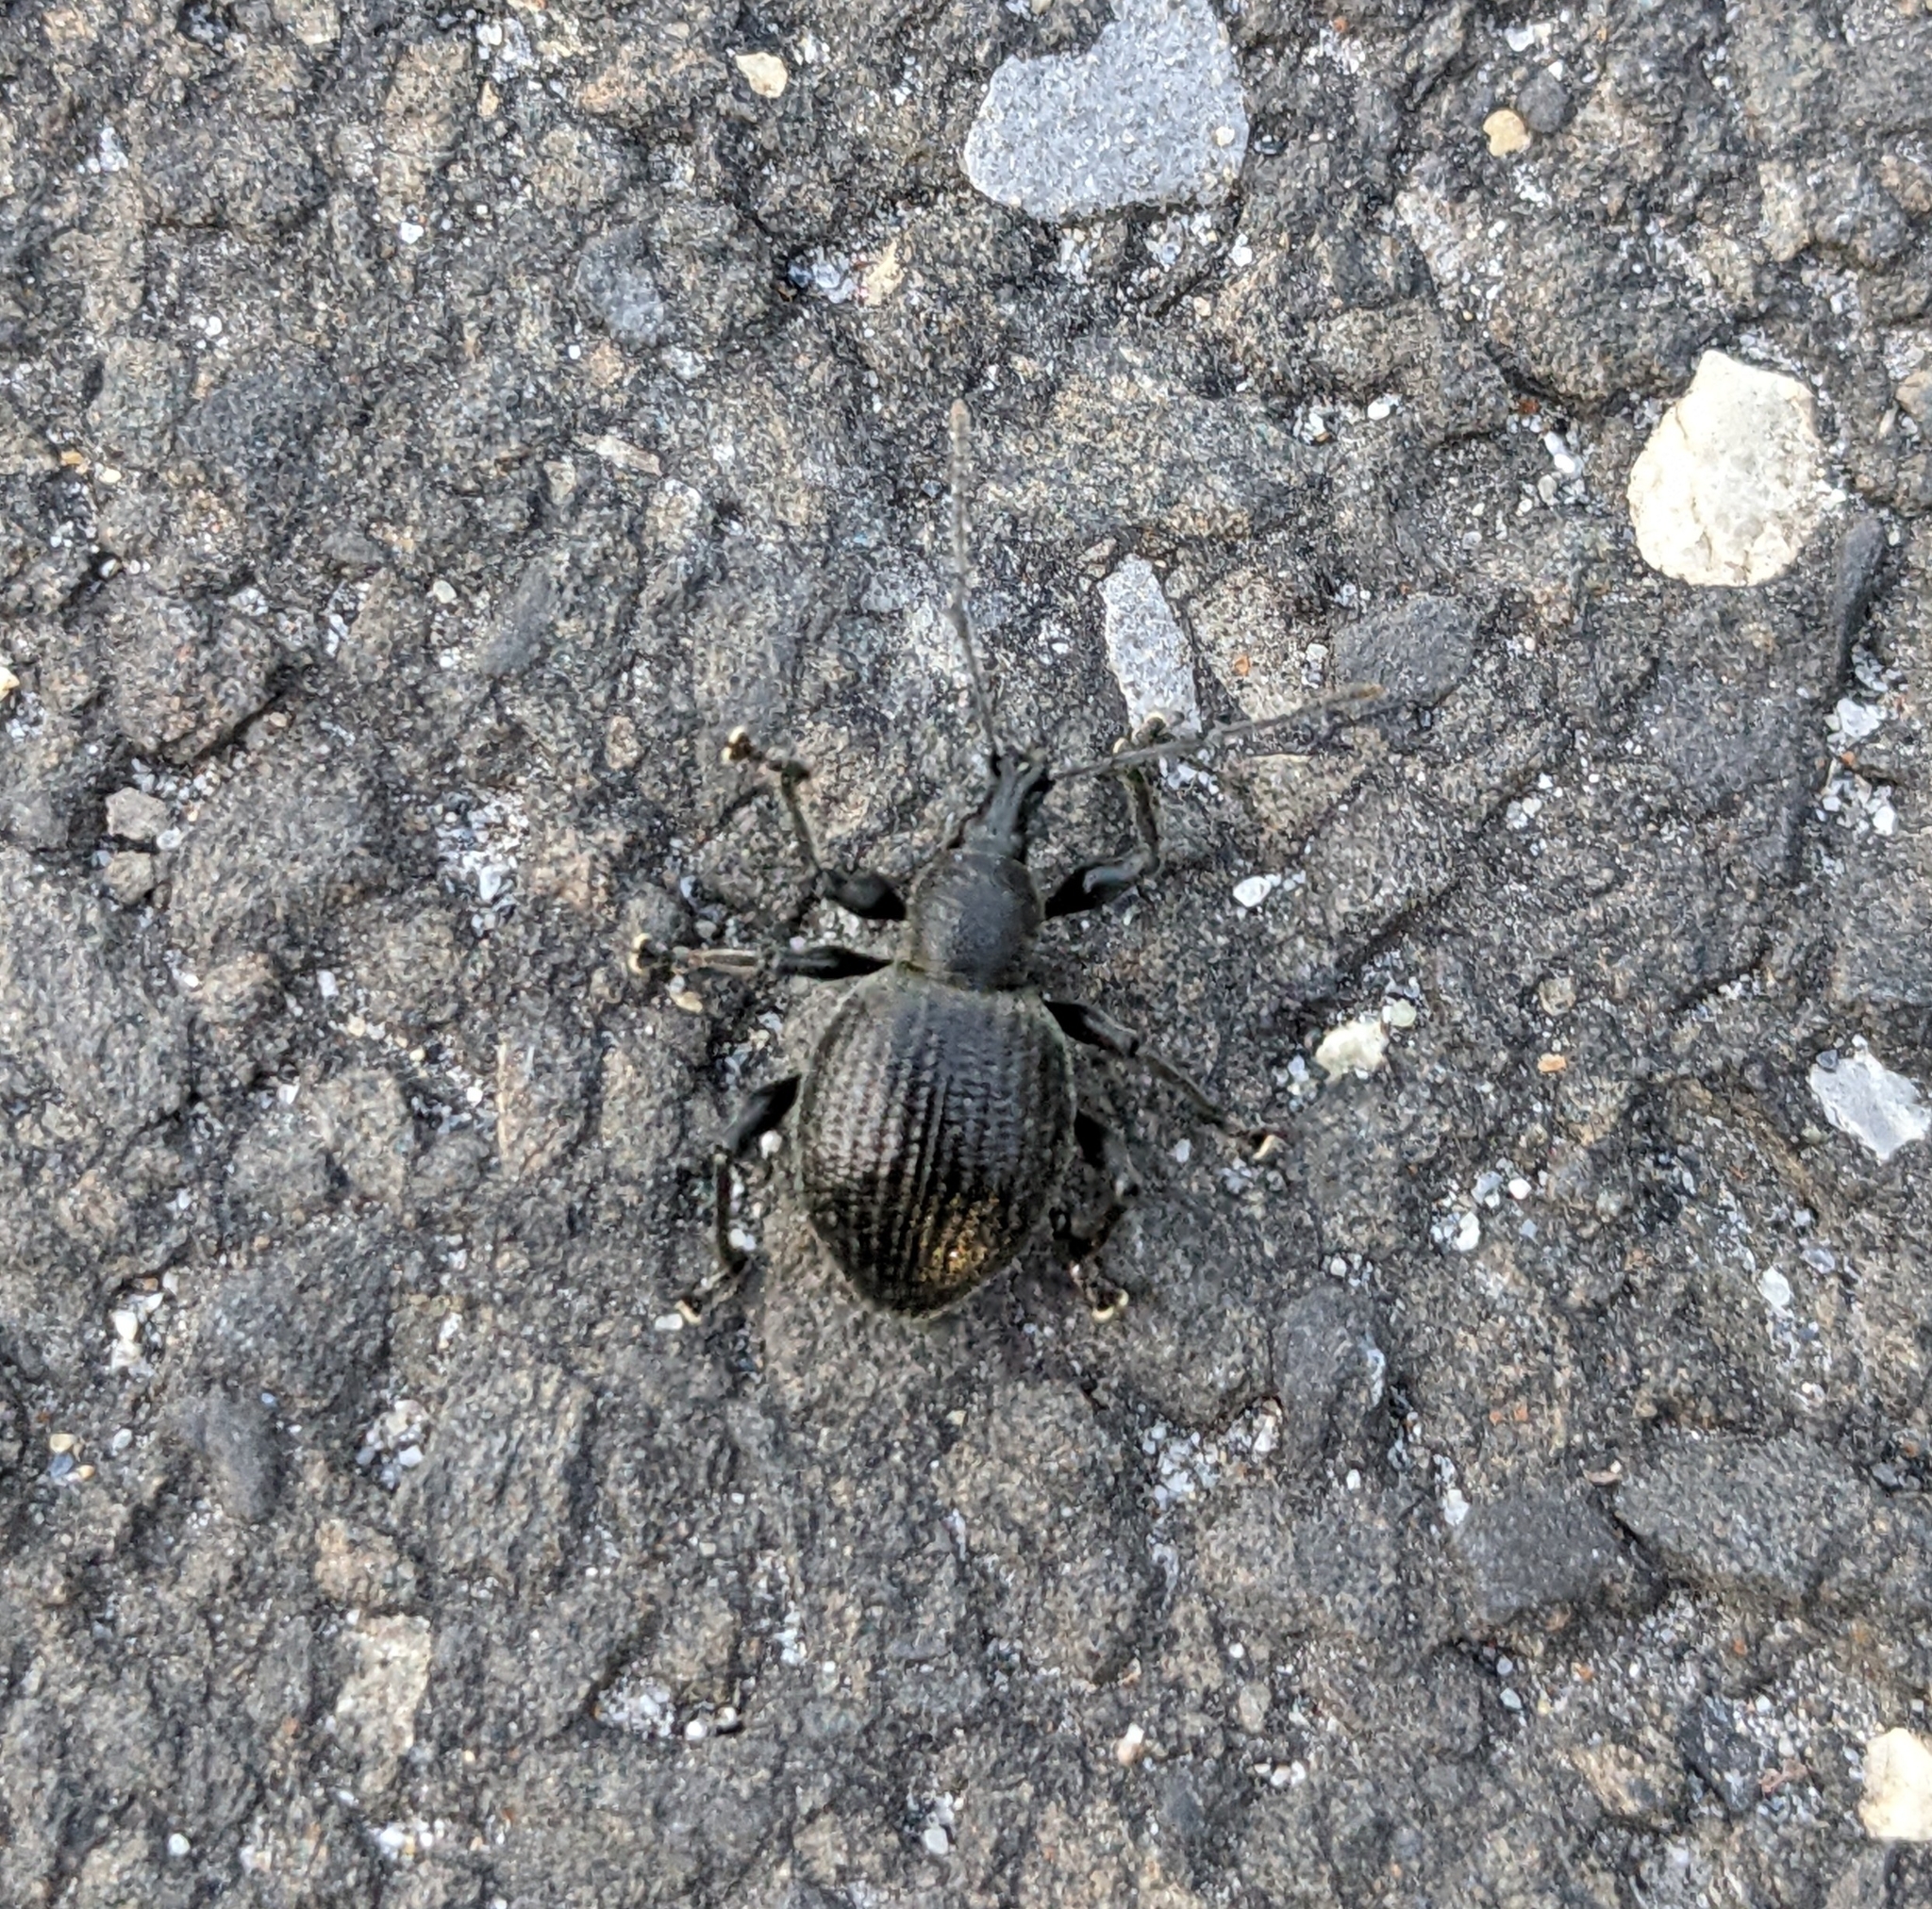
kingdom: Animalia
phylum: Arthropoda
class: Insecta
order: Coleoptera
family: Curculionidae
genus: Otiorhynchus
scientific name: Otiorhynchus armadillo
